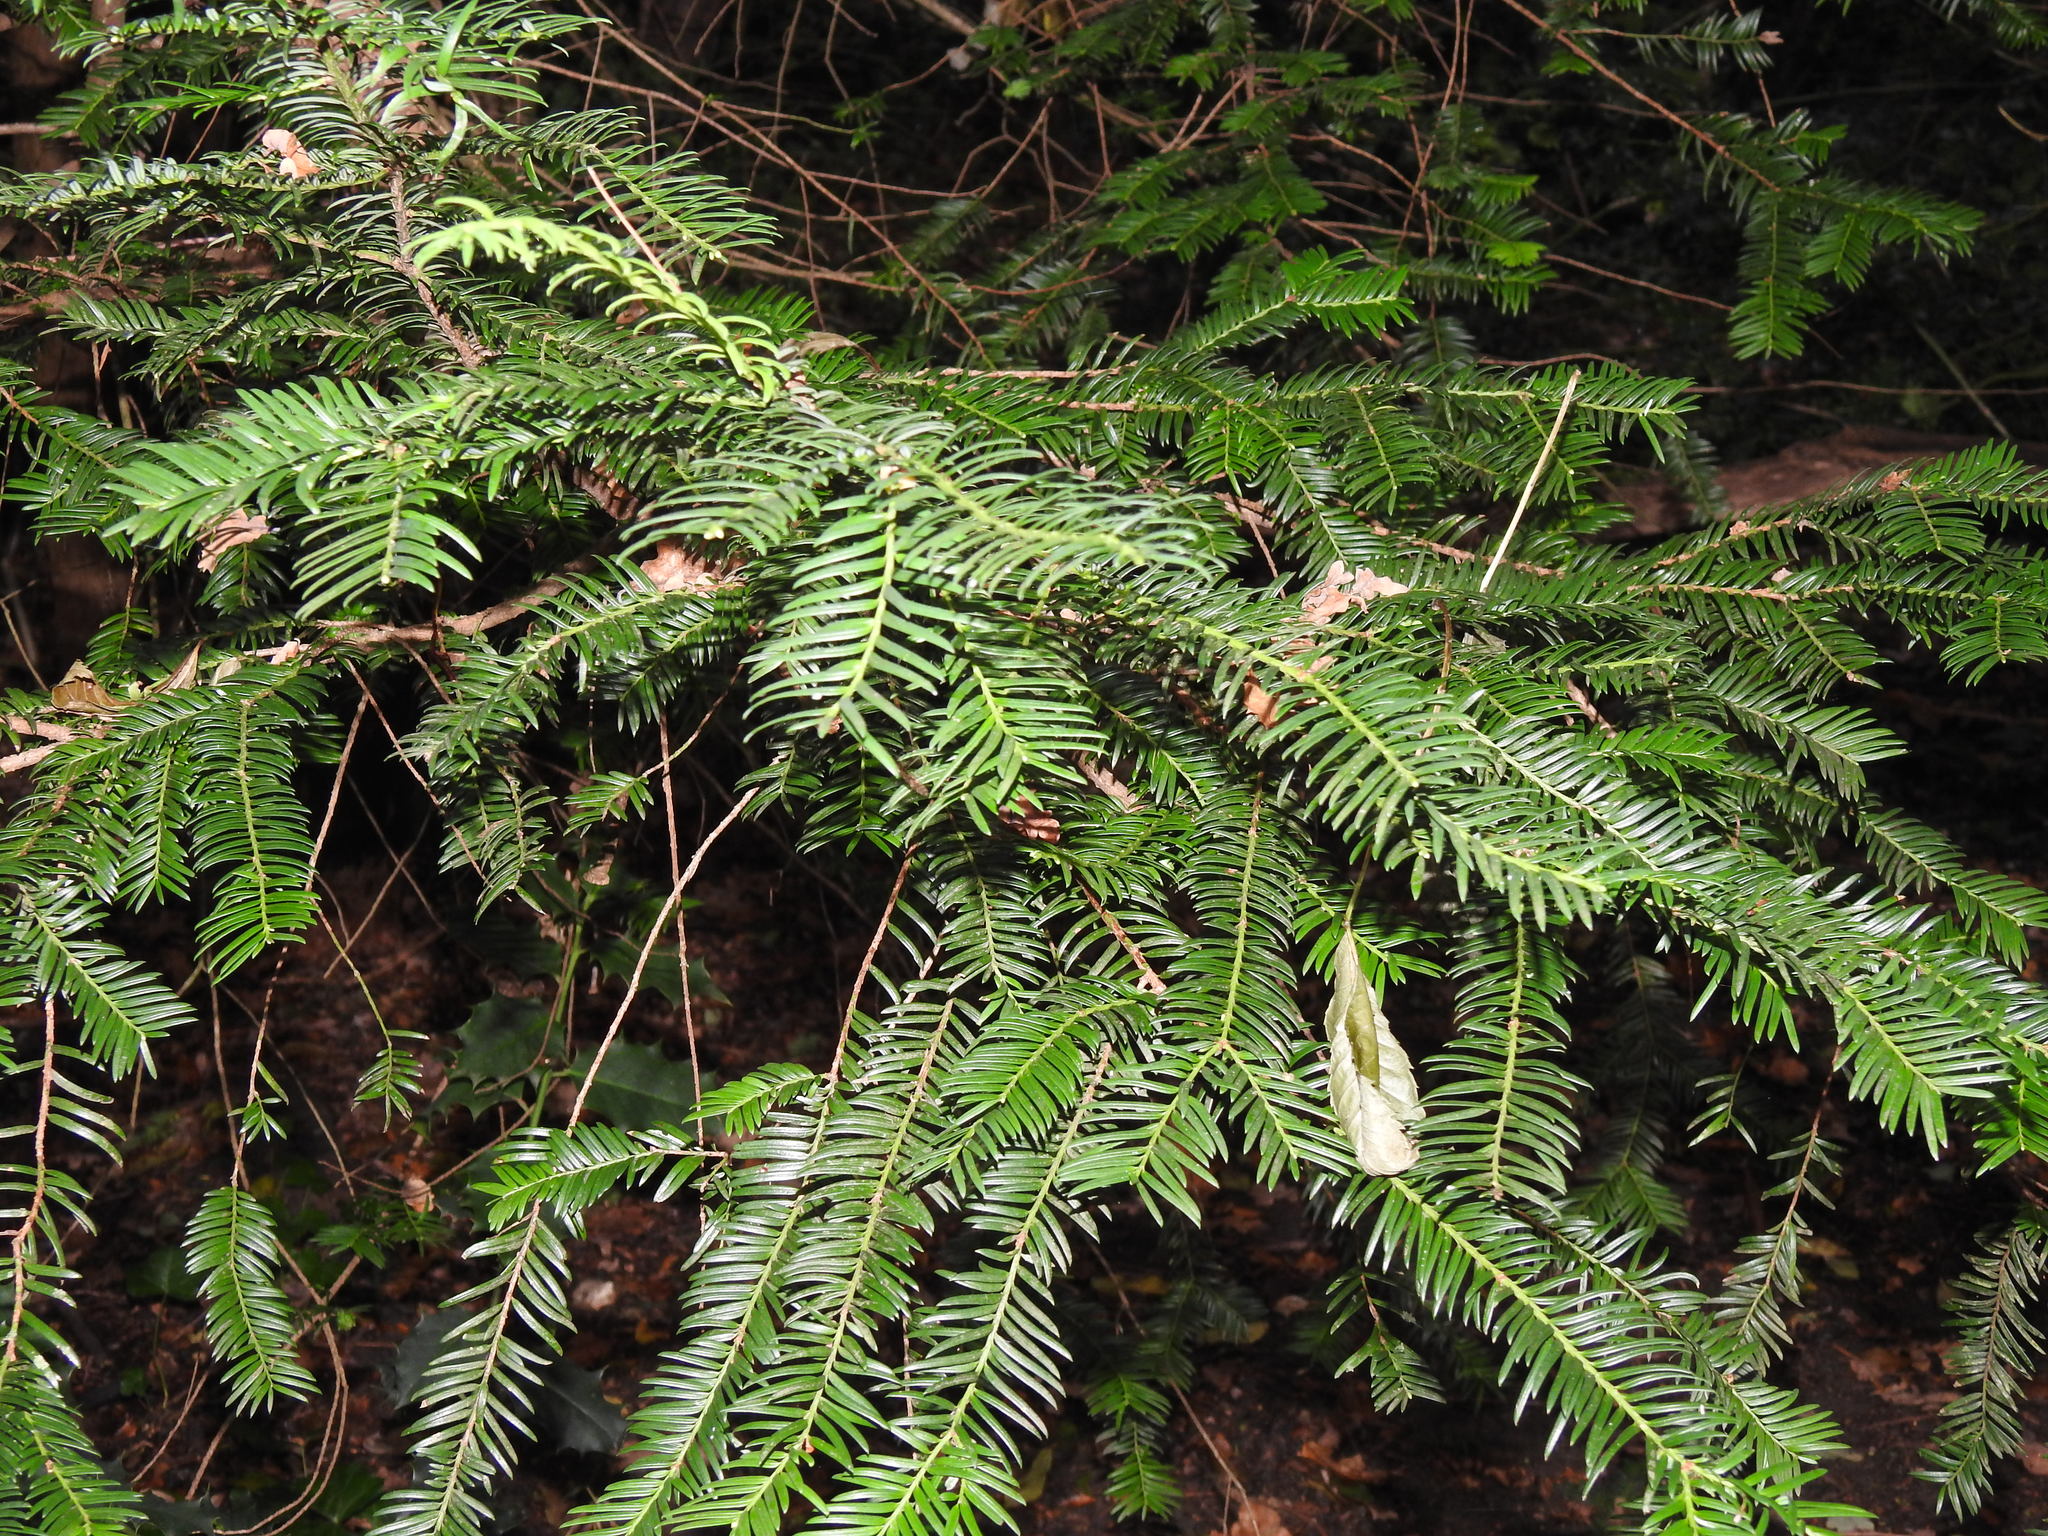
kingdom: Plantae
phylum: Tracheophyta
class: Pinopsida
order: Pinales
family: Taxaceae
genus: Taxus
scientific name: Taxus baccata
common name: Yew
